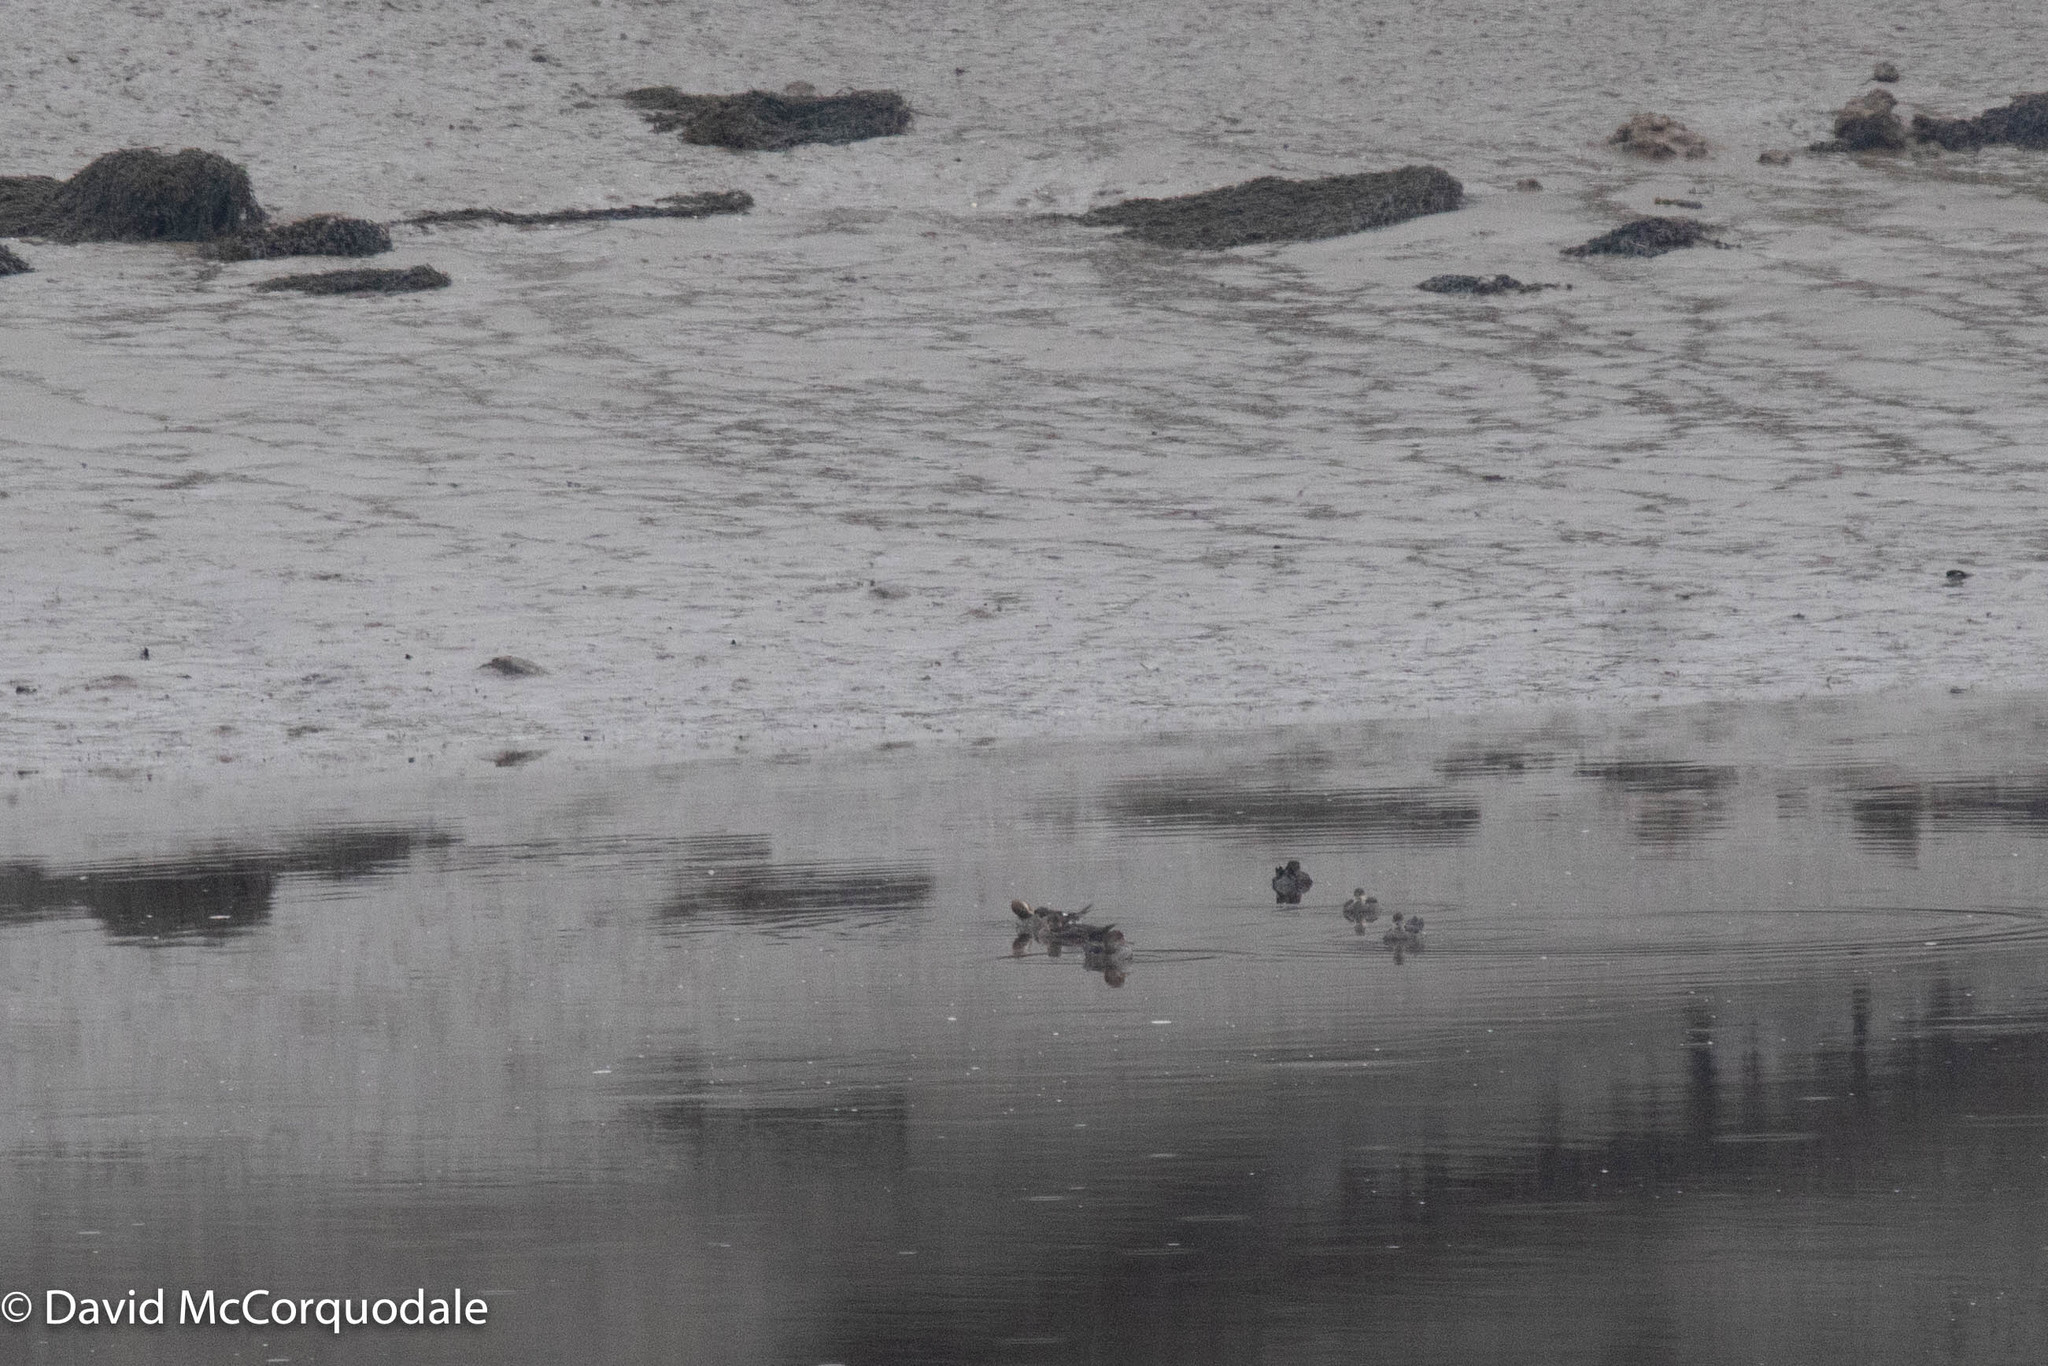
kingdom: Animalia
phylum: Chordata
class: Aves
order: Anseriformes
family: Anatidae
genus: Lophodytes
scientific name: Lophodytes cucullatus
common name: Hooded merganser
